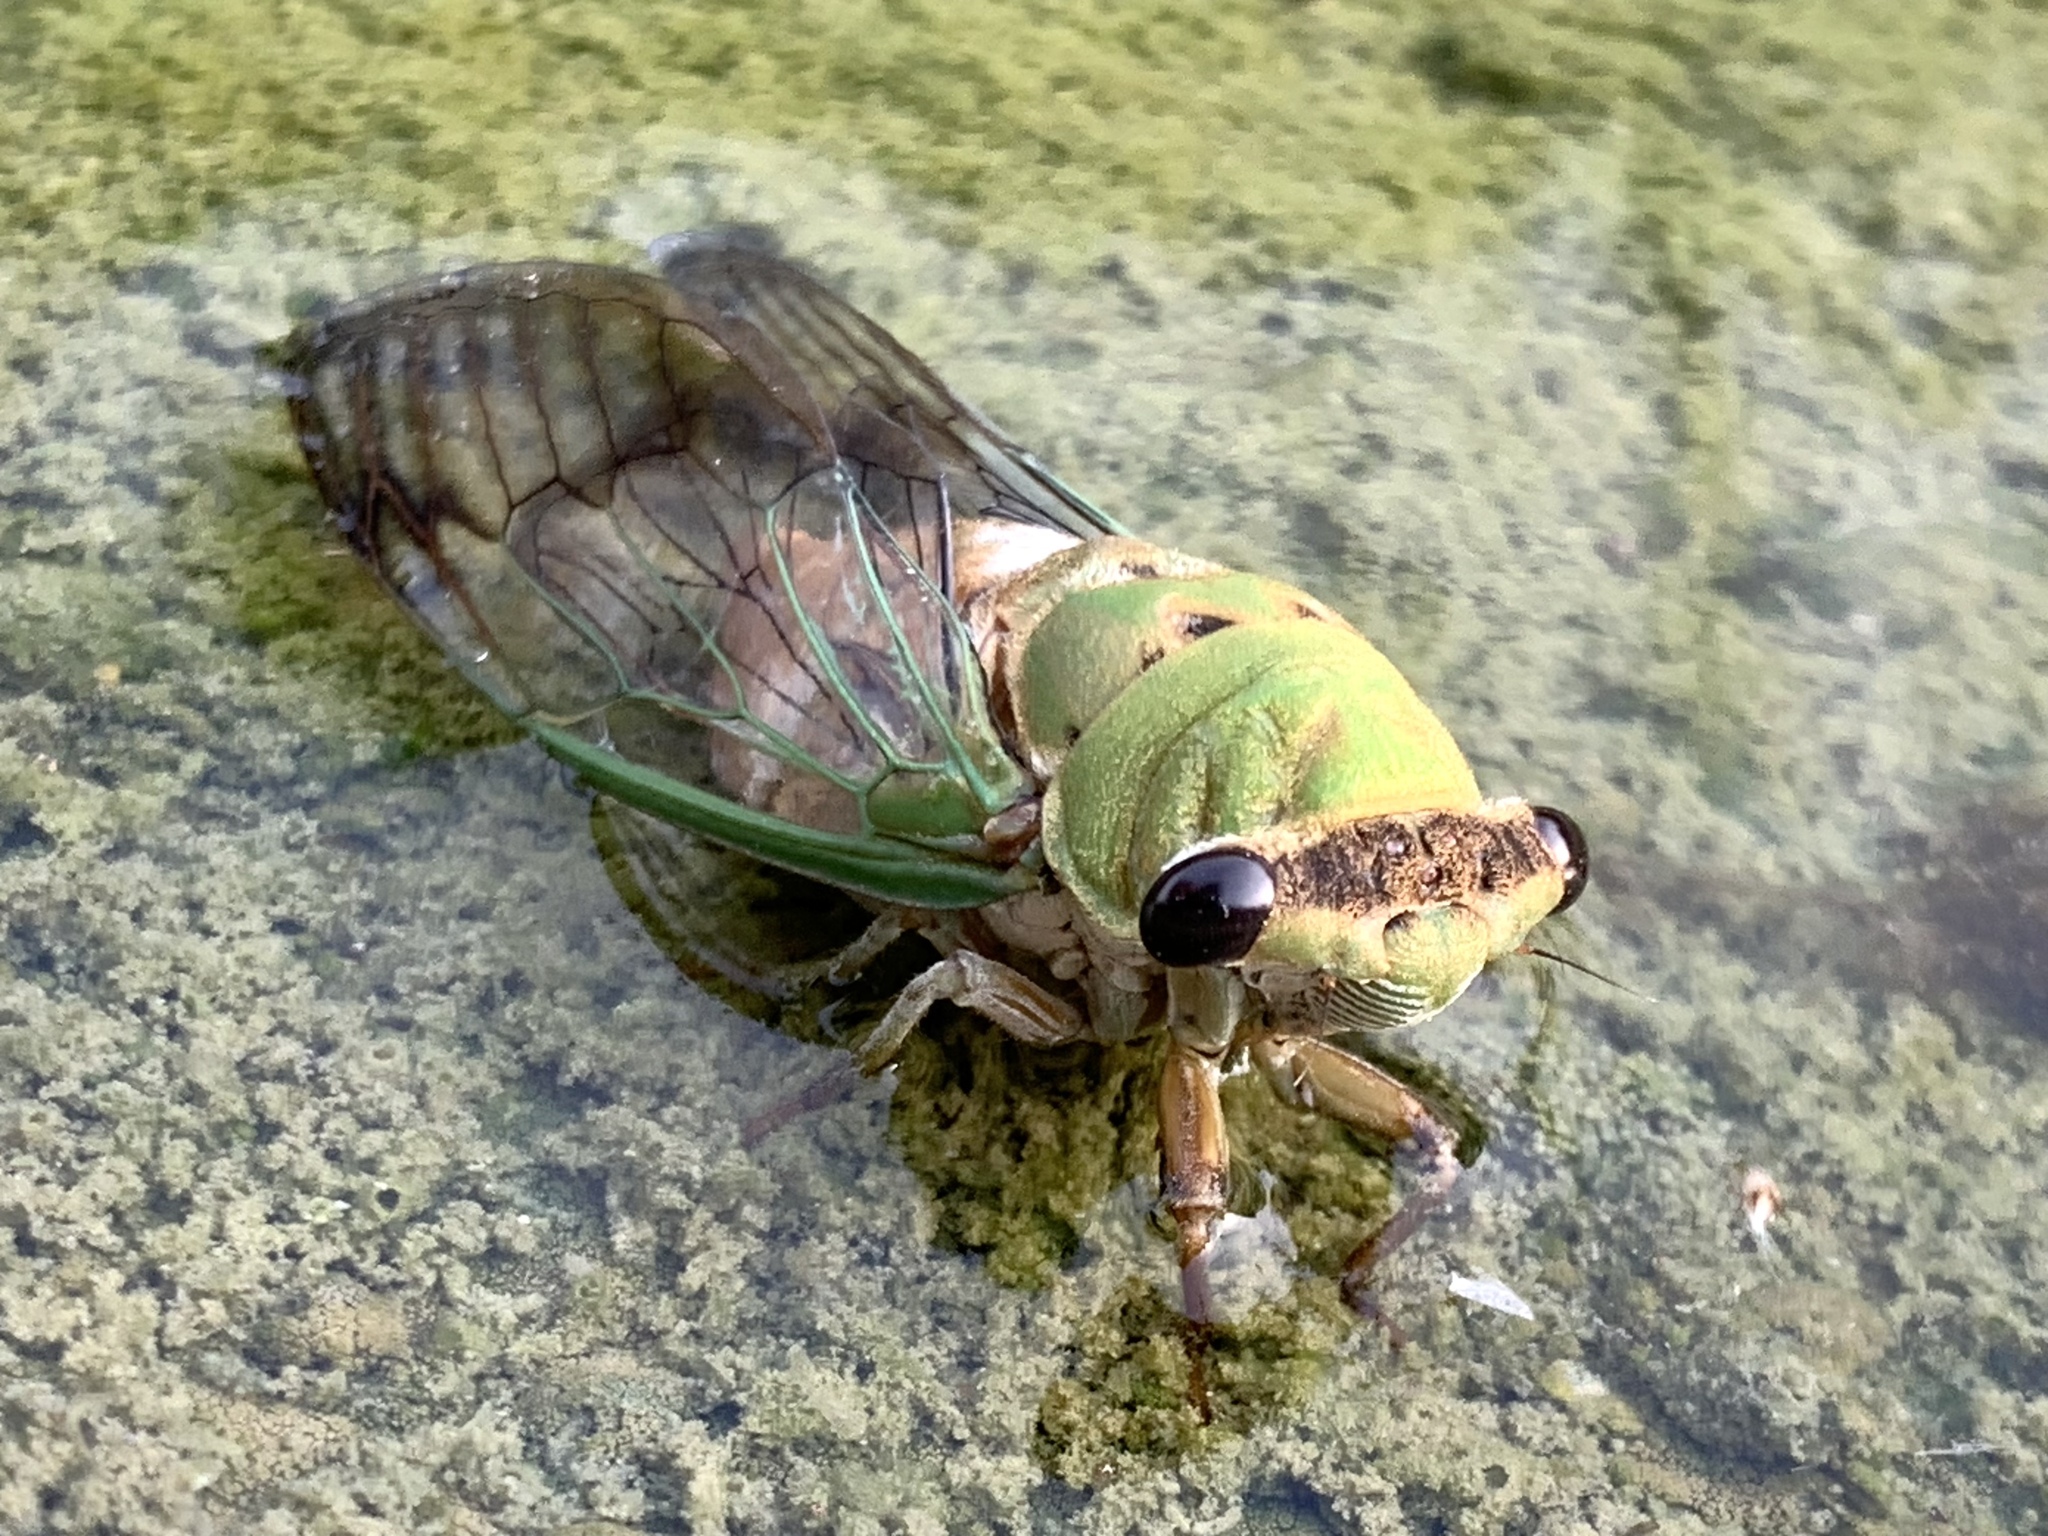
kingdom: Animalia
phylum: Arthropoda
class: Insecta
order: Hemiptera
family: Cicadidae
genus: Neotibicen
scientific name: Neotibicen superbus
